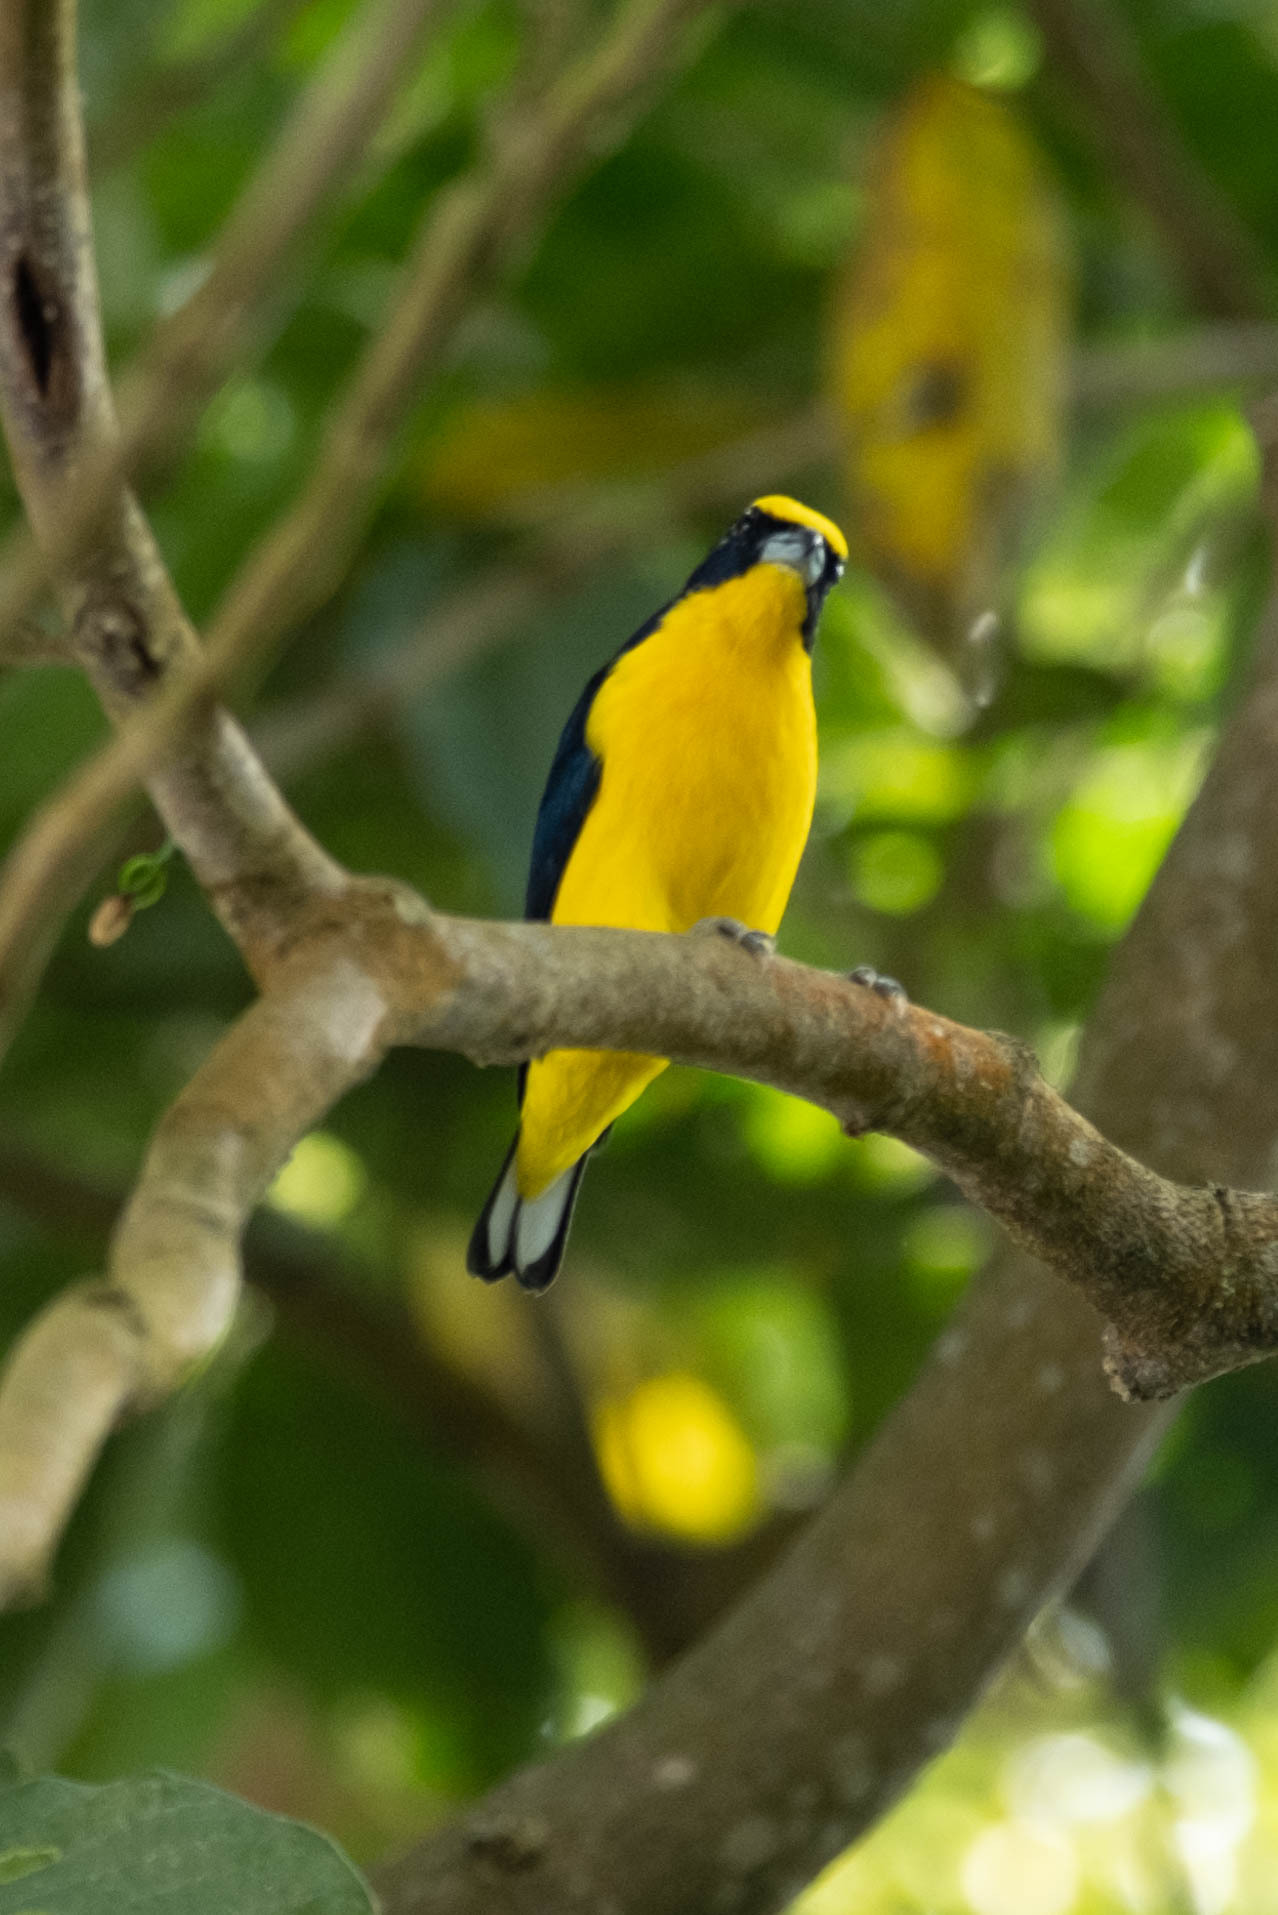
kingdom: Animalia
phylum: Chordata
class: Aves
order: Passeriformes
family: Fringillidae
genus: Euphonia
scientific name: Euphonia laniirostris
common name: Thick-billed euphonia
